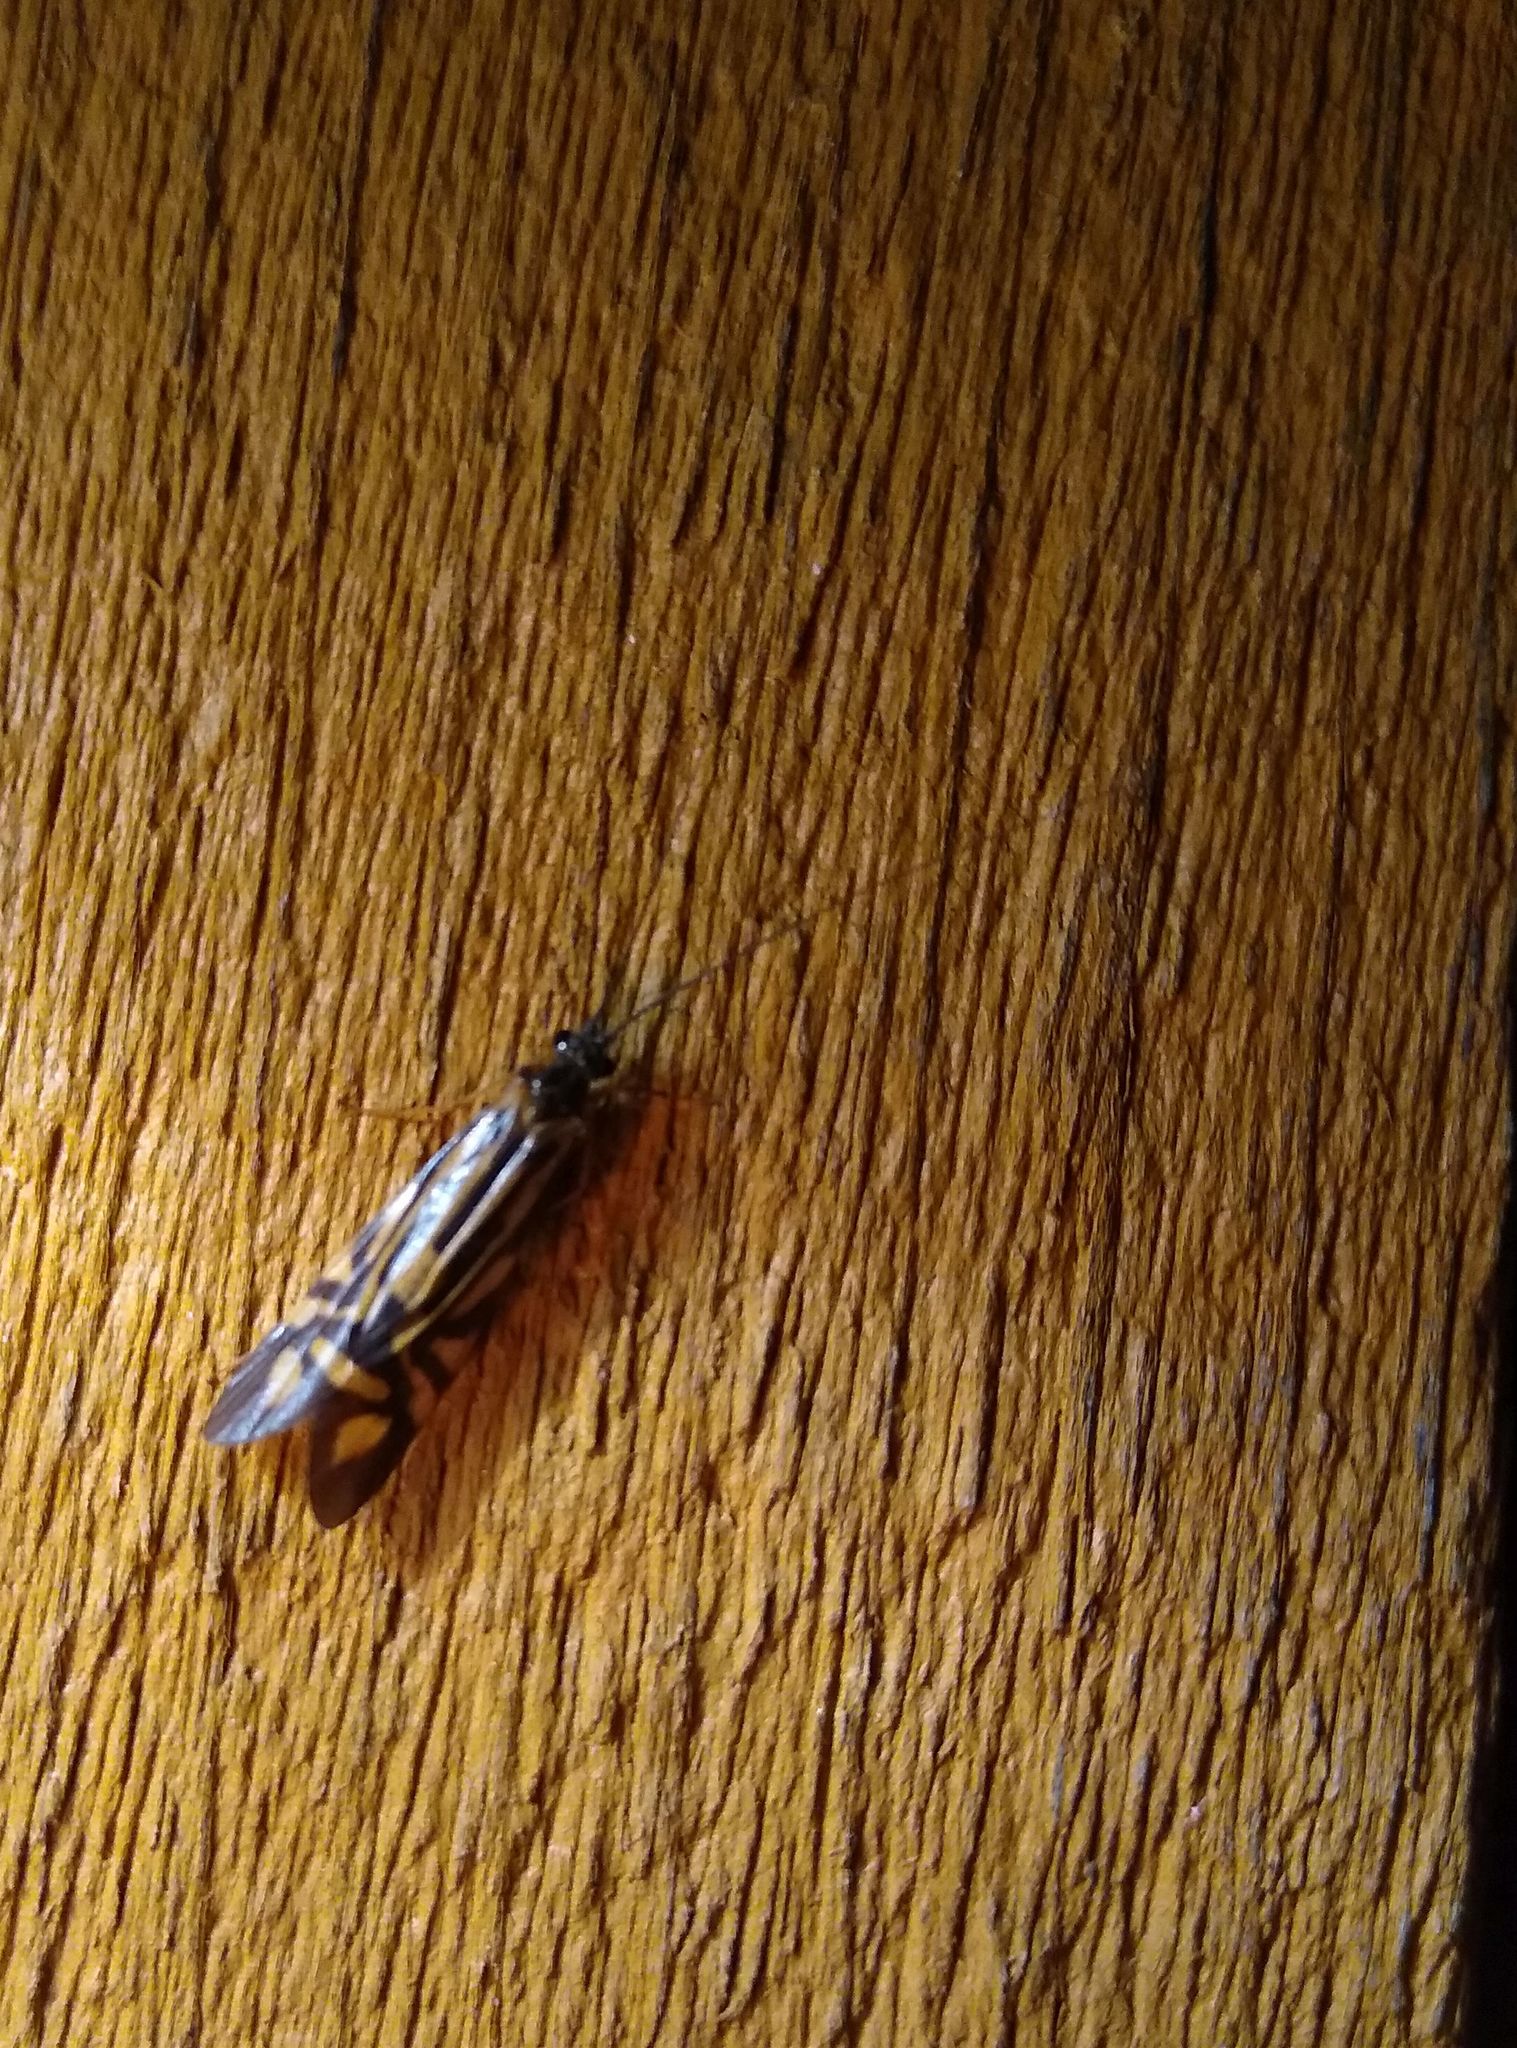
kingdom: Animalia
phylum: Arthropoda
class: Insecta
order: Trichoptera
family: Hydropsychidae
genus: Macrostemum
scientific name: Macrostemum zebratum
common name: Zebra caddisfly
